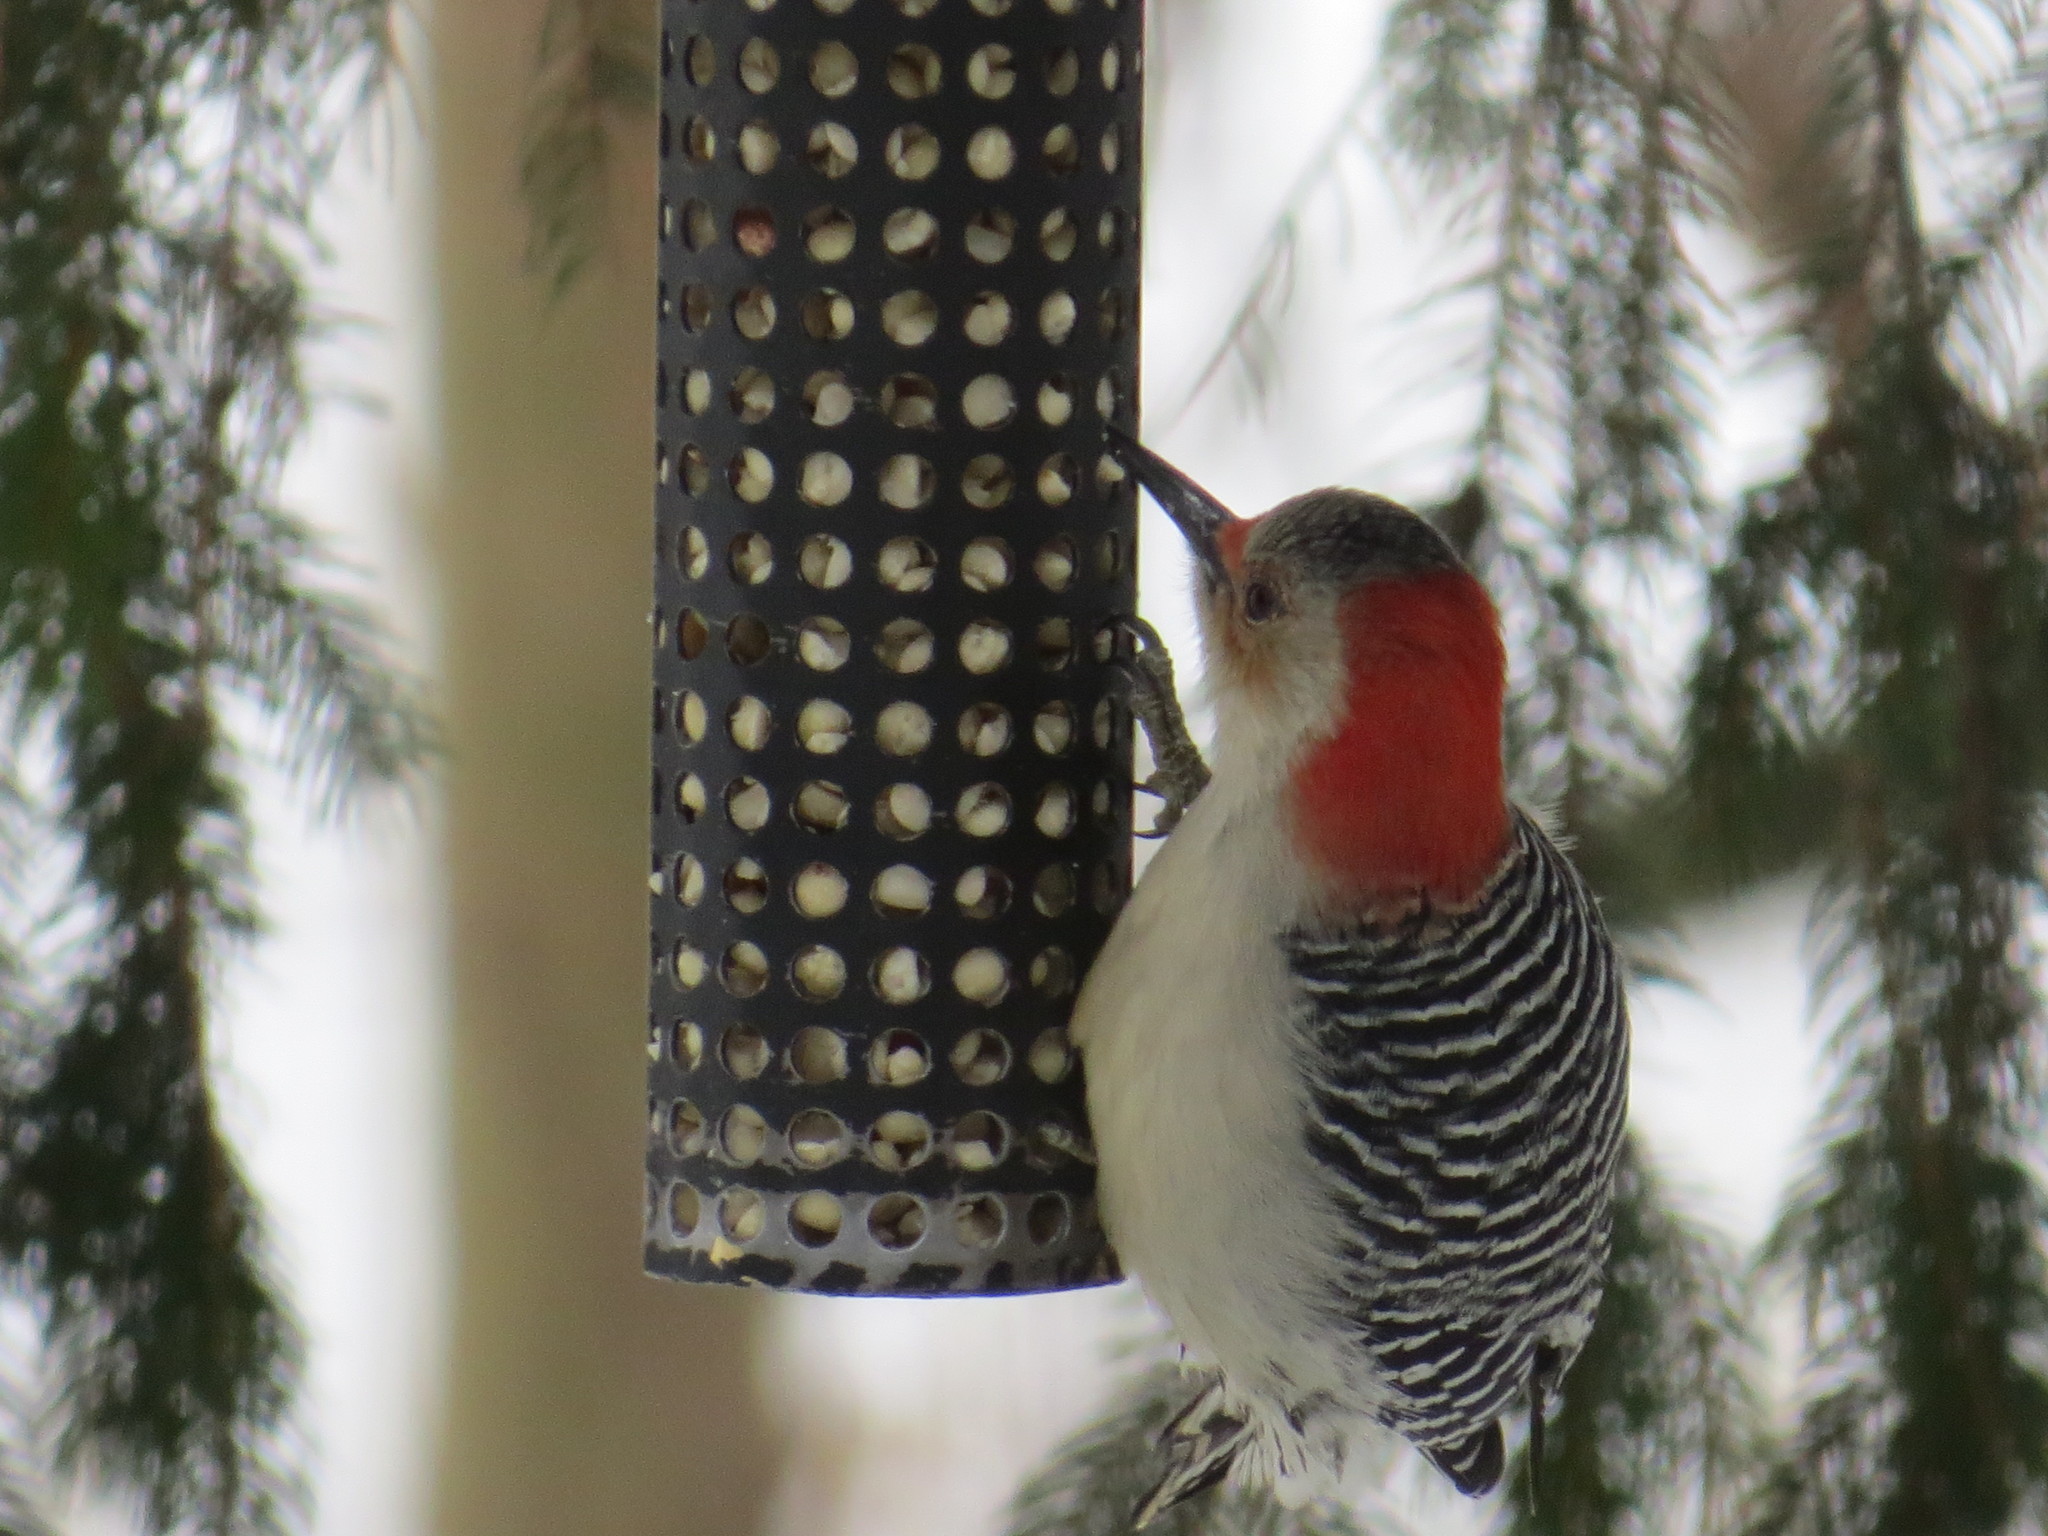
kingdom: Animalia
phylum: Chordata
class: Aves
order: Piciformes
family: Picidae
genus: Melanerpes
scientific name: Melanerpes carolinus
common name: Red-bellied woodpecker
